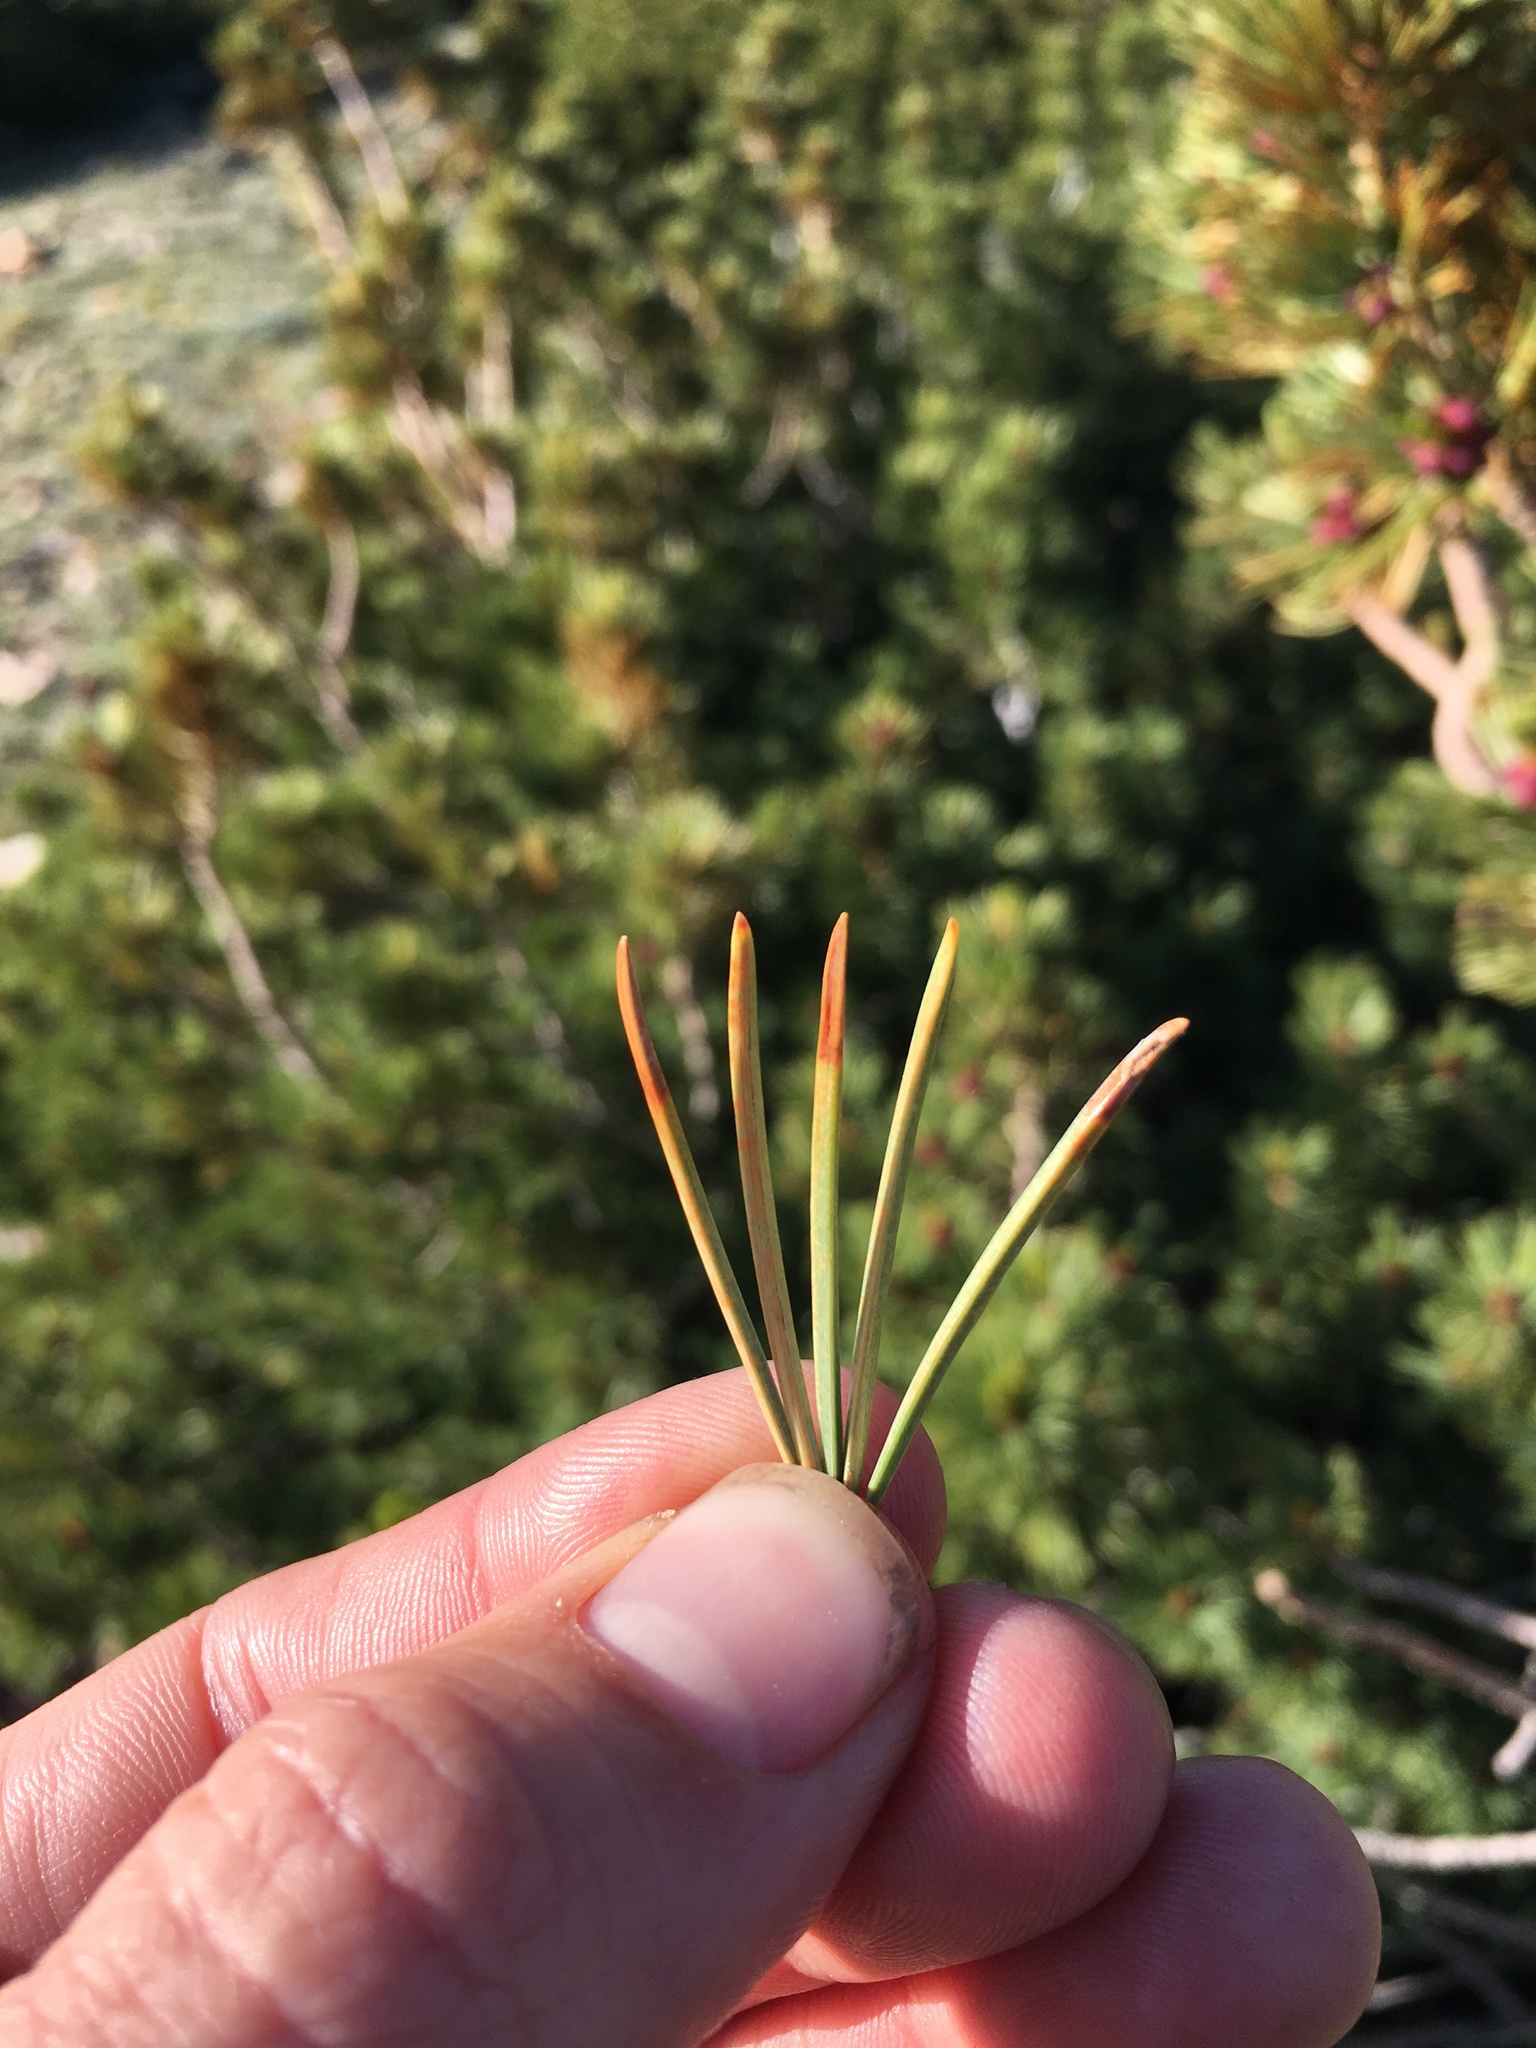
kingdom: Plantae
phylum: Tracheophyta
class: Pinopsida
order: Pinales
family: Pinaceae
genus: Pinus
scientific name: Pinus albicaulis
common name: Whitebark pine
